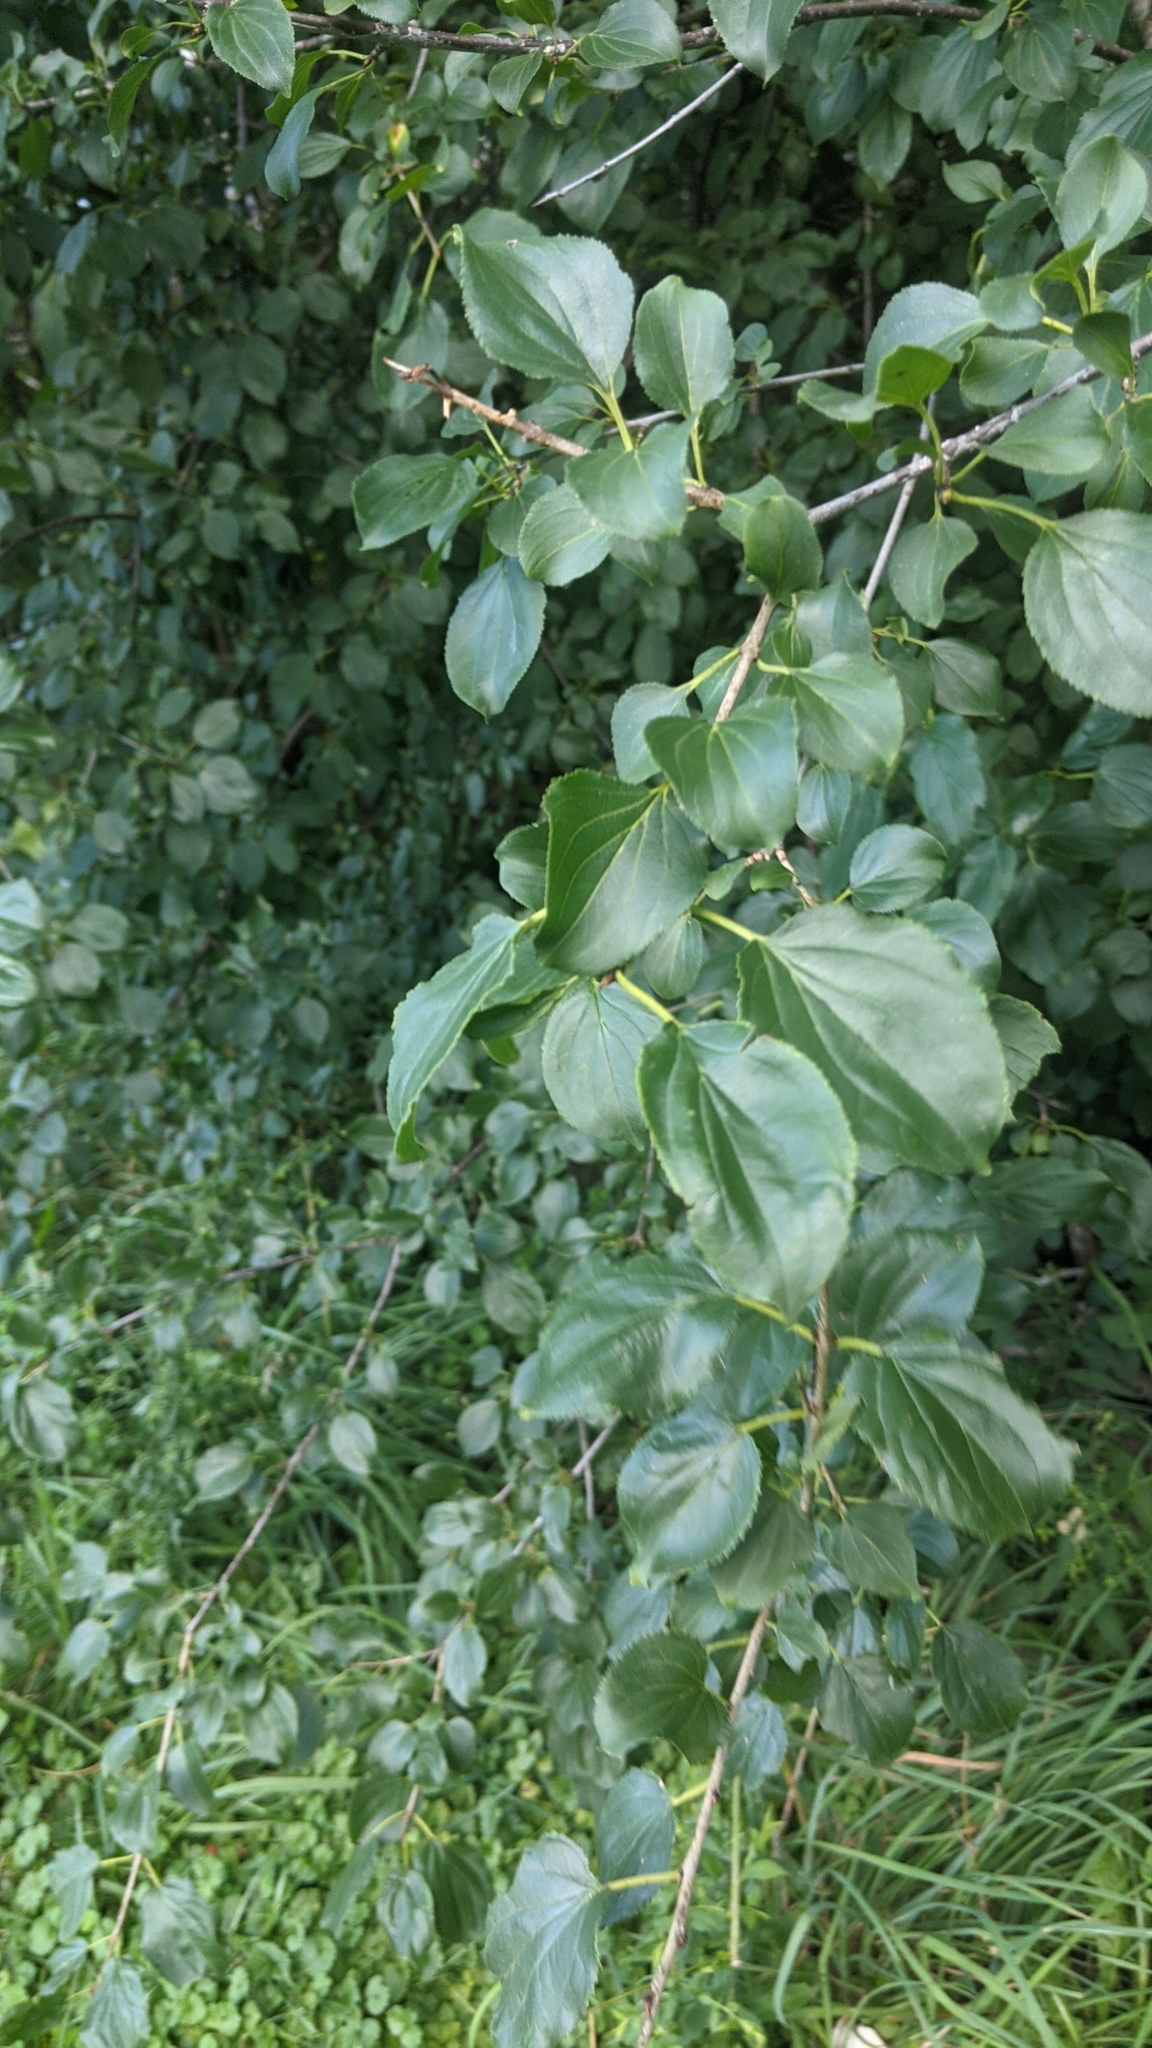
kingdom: Plantae
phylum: Tracheophyta
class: Magnoliopsida
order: Rosales
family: Rhamnaceae
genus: Rhamnus
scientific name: Rhamnus cathartica
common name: Common buckthorn
